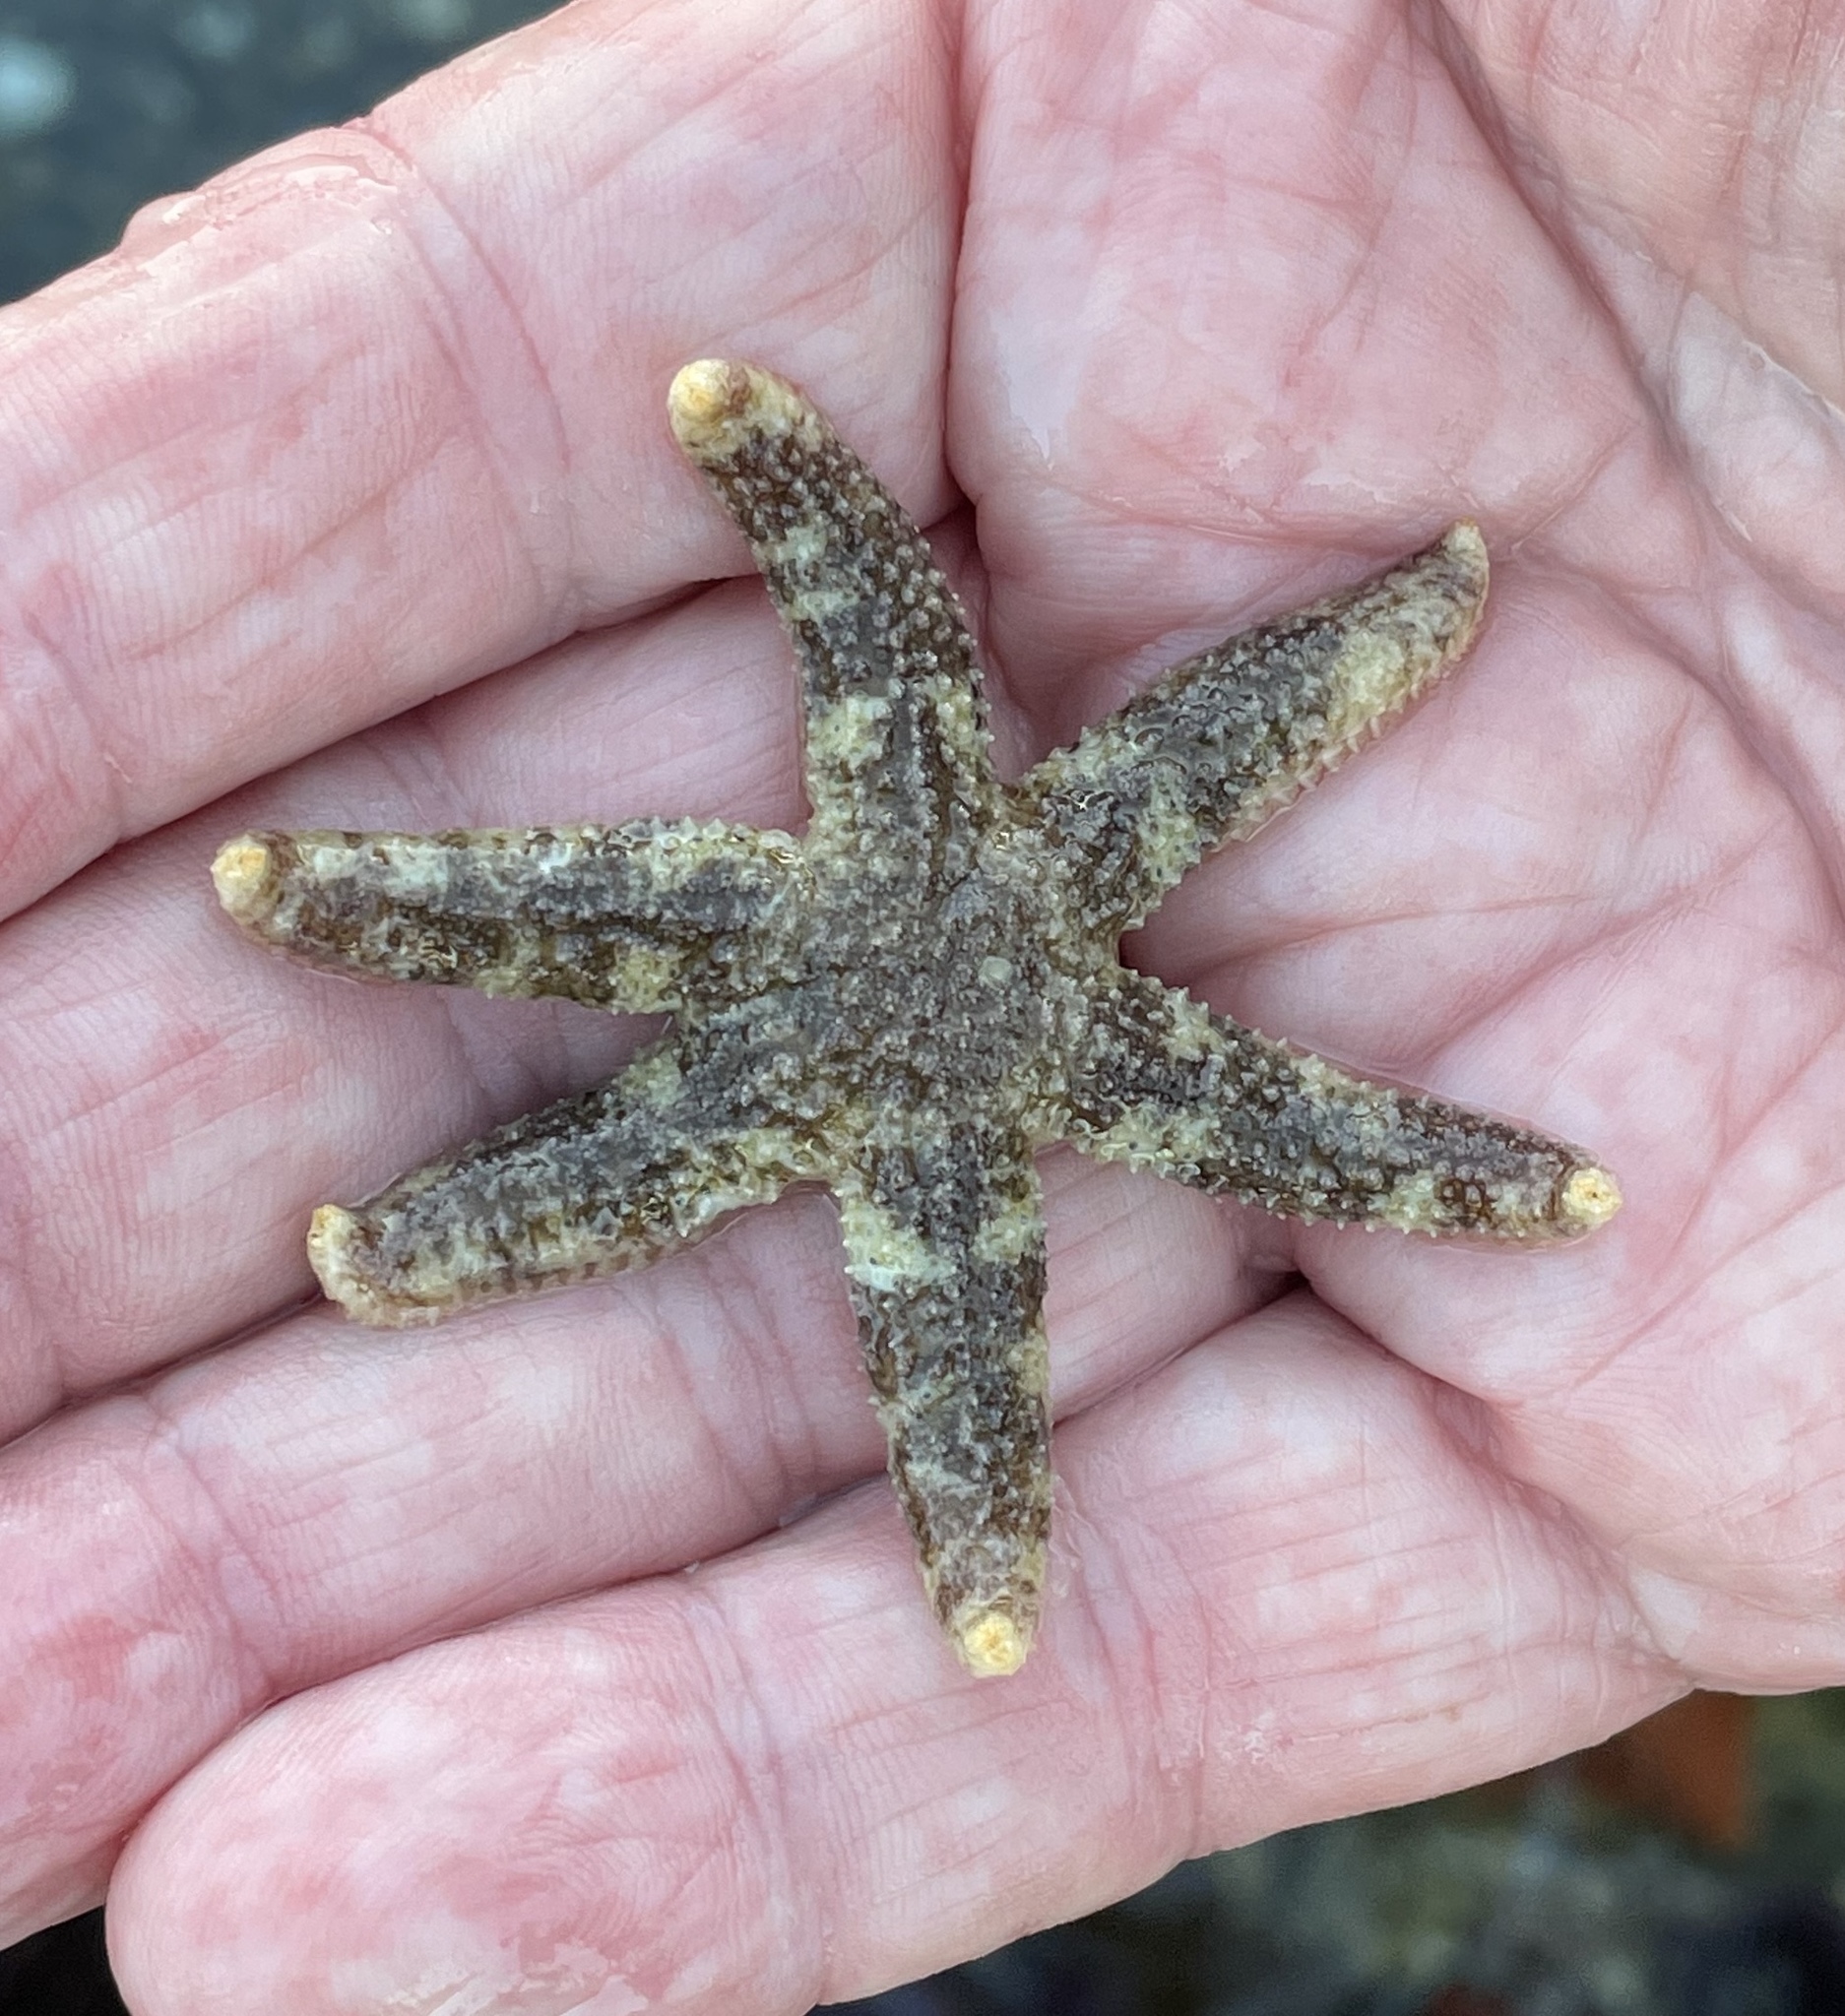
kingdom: Animalia
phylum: Echinodermata
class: Asteroidea
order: Forcipulatida
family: Asteriidae
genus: Leptasterias
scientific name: Leptasterias hexactis
